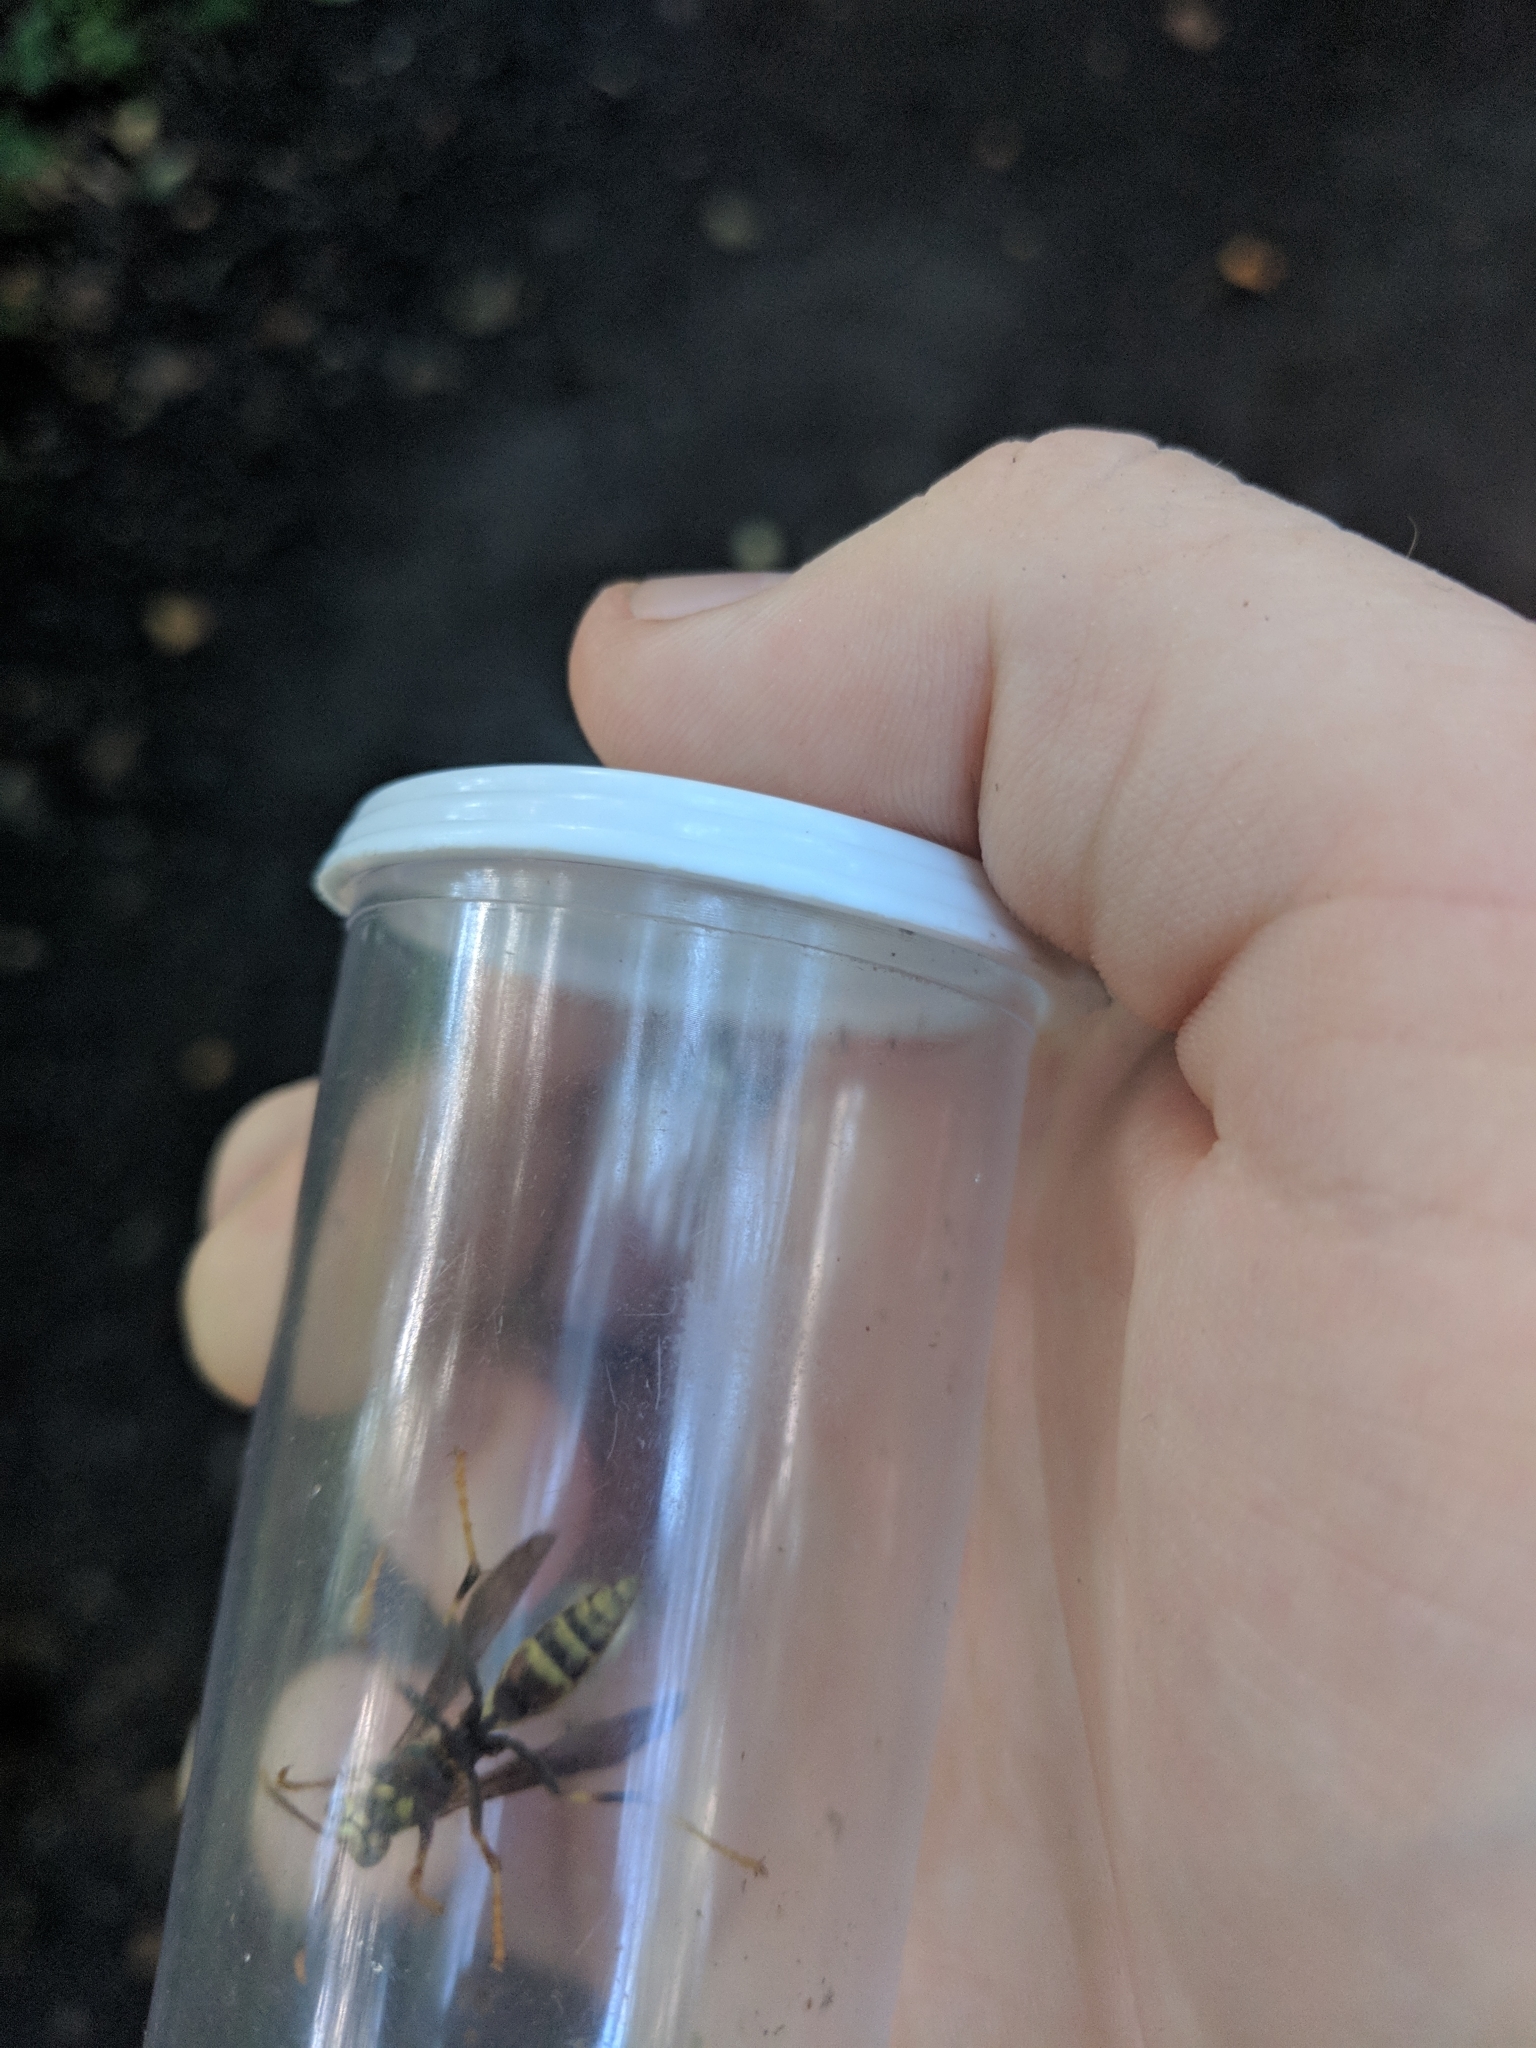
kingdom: Animalia
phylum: Arthropoda
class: Insecta
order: Hymenoptera
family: Eumenidae
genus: Polistes
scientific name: Polistes exclamans
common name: Paper wasp
